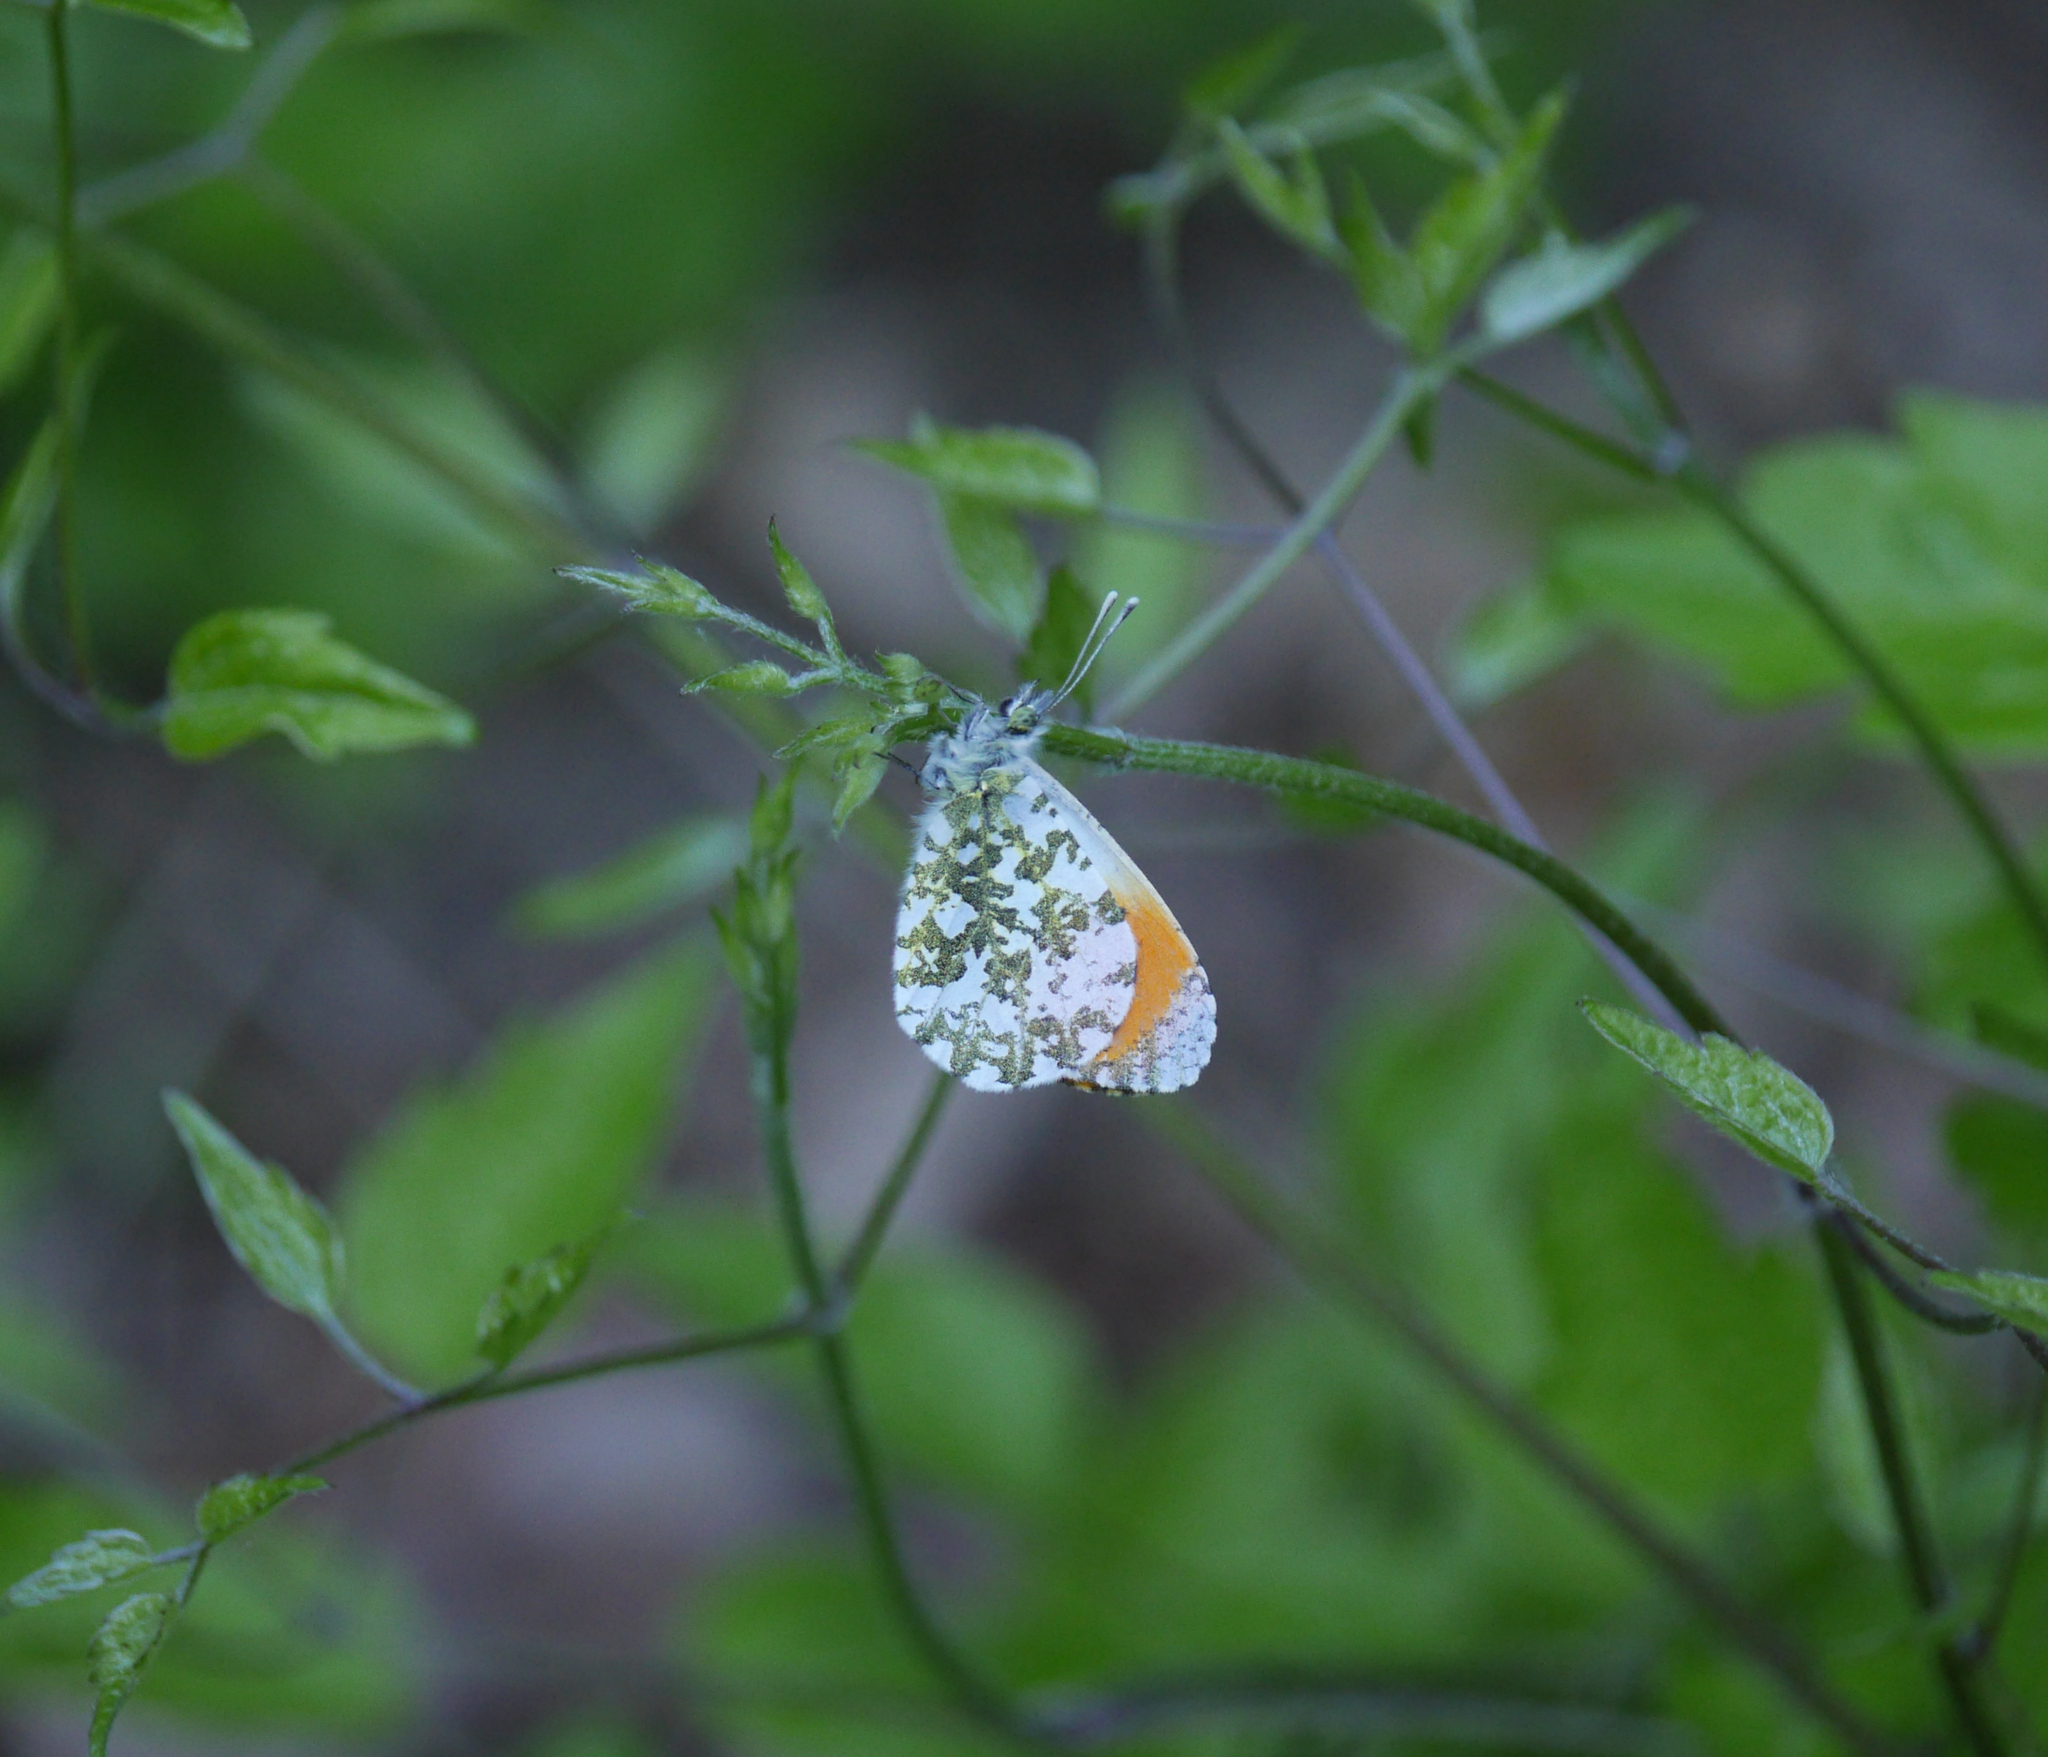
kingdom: Animalia
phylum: Arthropoda
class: Insecta
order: Lepidoptera
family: Pieridae
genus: Anthocharis
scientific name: Anthocharis cardamines
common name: Orange-tip
